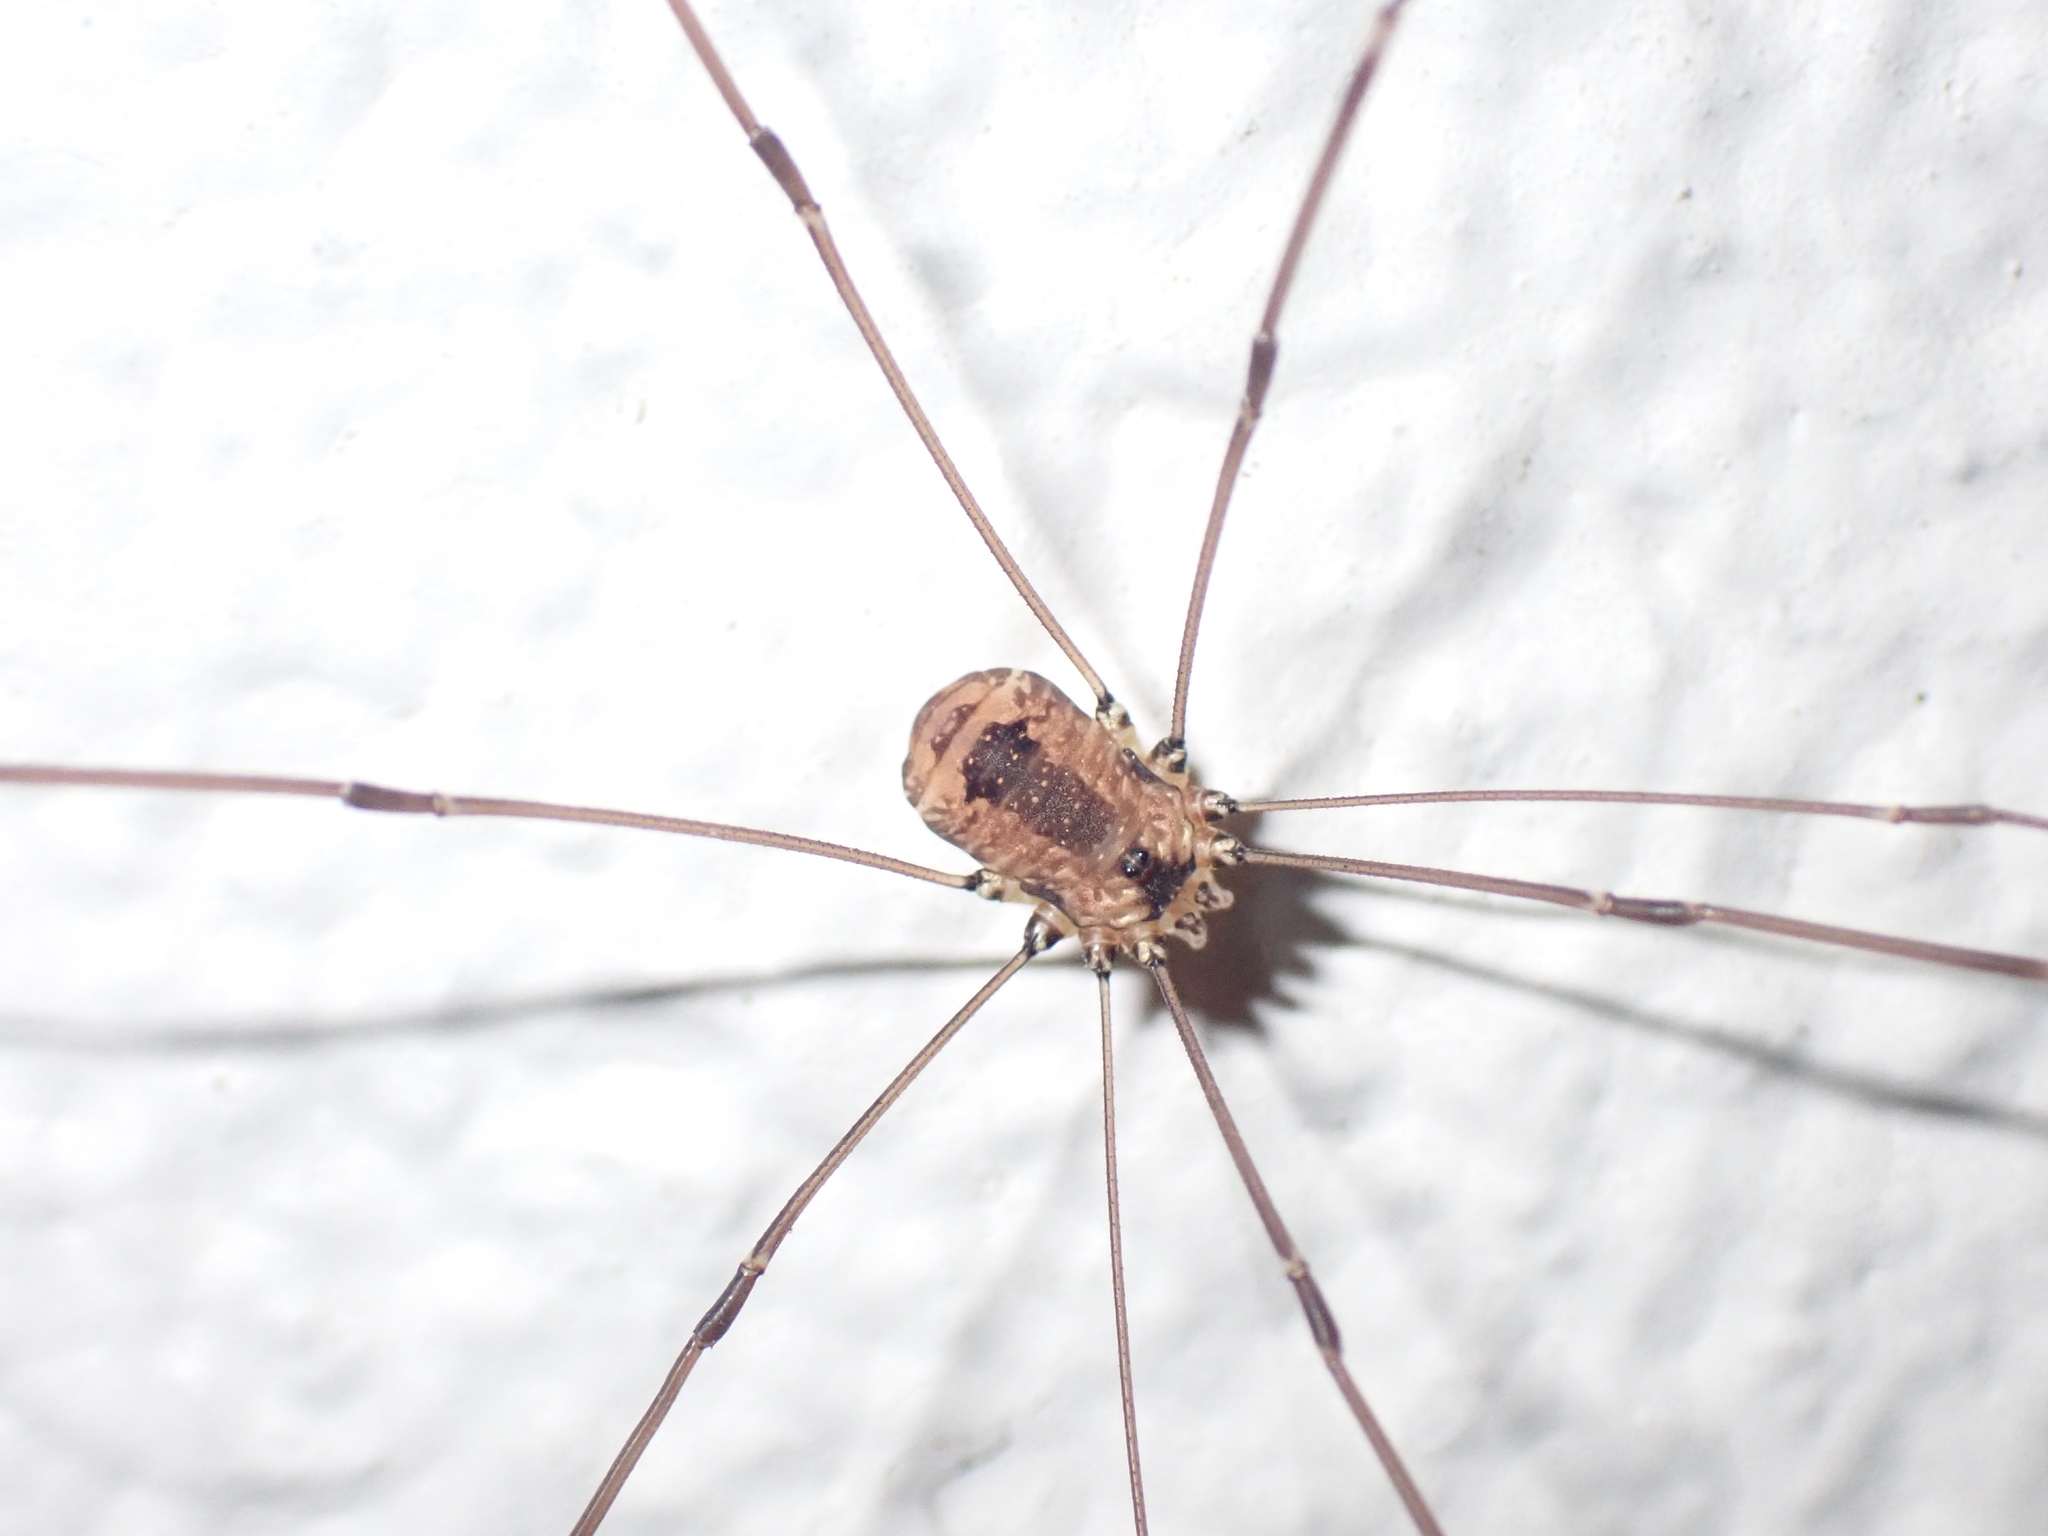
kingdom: Animalia
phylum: Arthropoda
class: Arachnida
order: Opiliones
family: Sclerosomatidae
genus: Leiobunum
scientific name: Leiobunum rotundum
